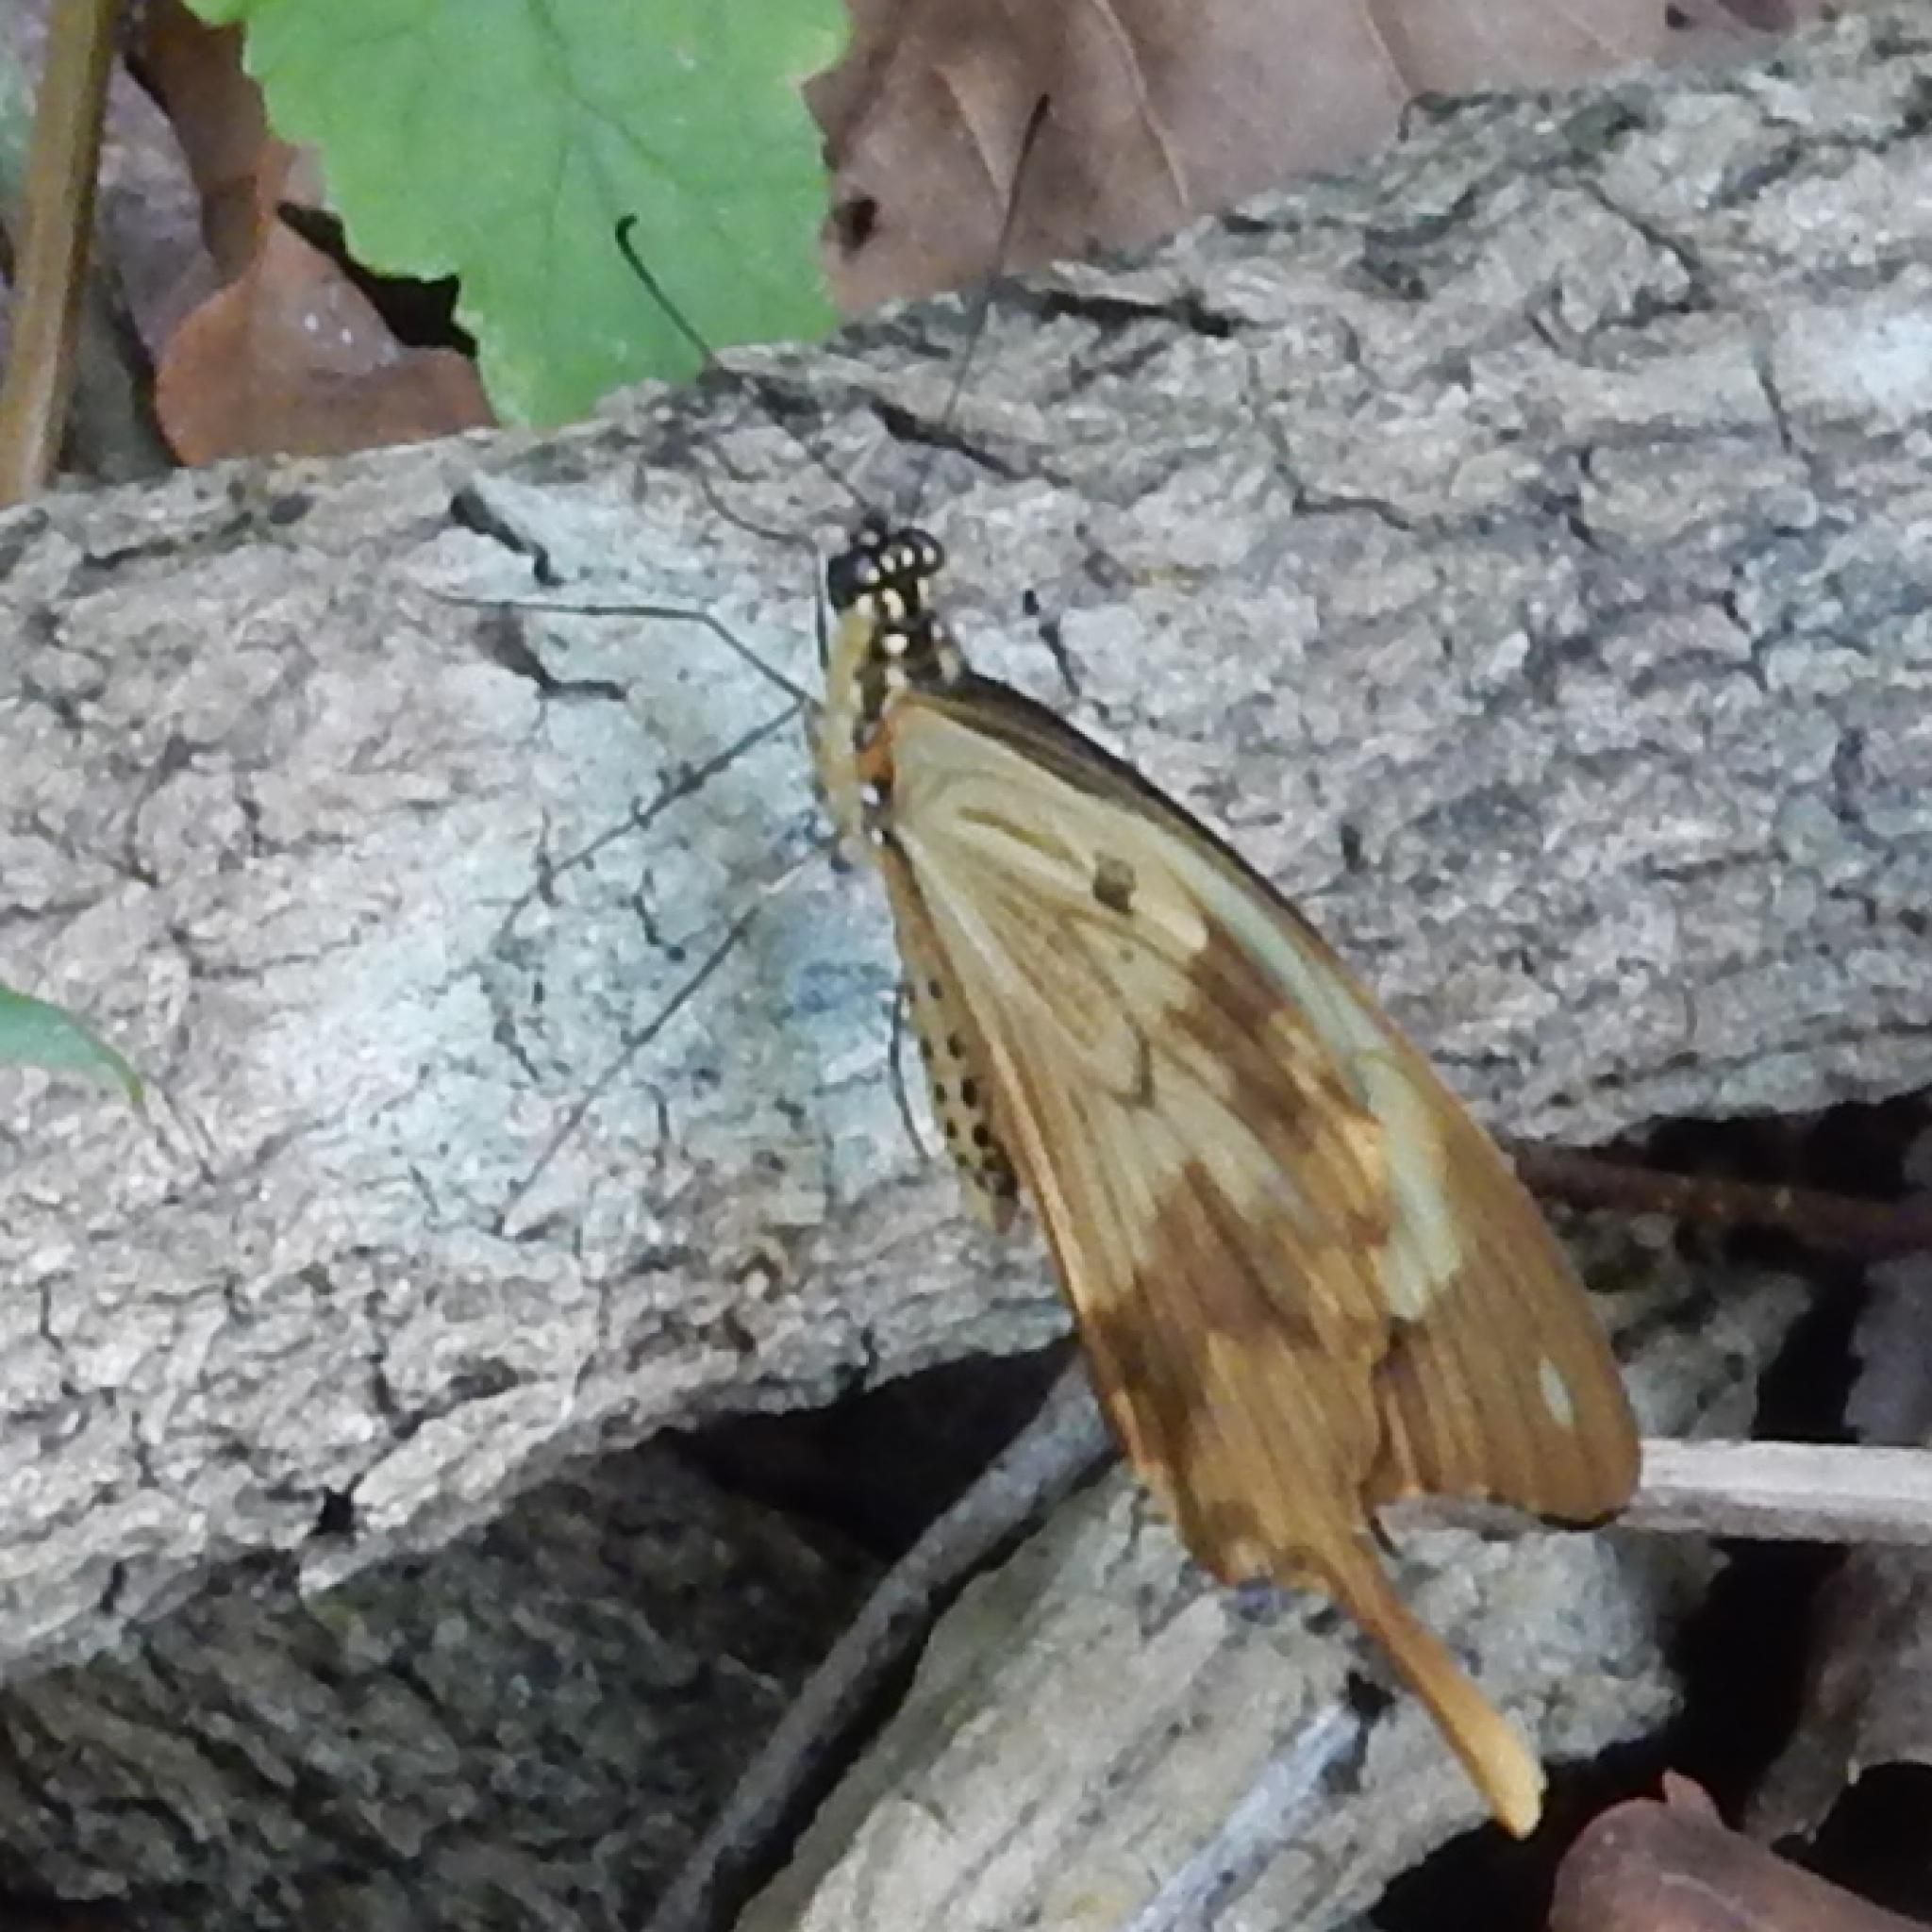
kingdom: Animalia
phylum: Arthropoda
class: Insecta
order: Lepidoptera
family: Papilionidae
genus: Papilio
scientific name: Papilio dardanus
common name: Flying handkerchief
